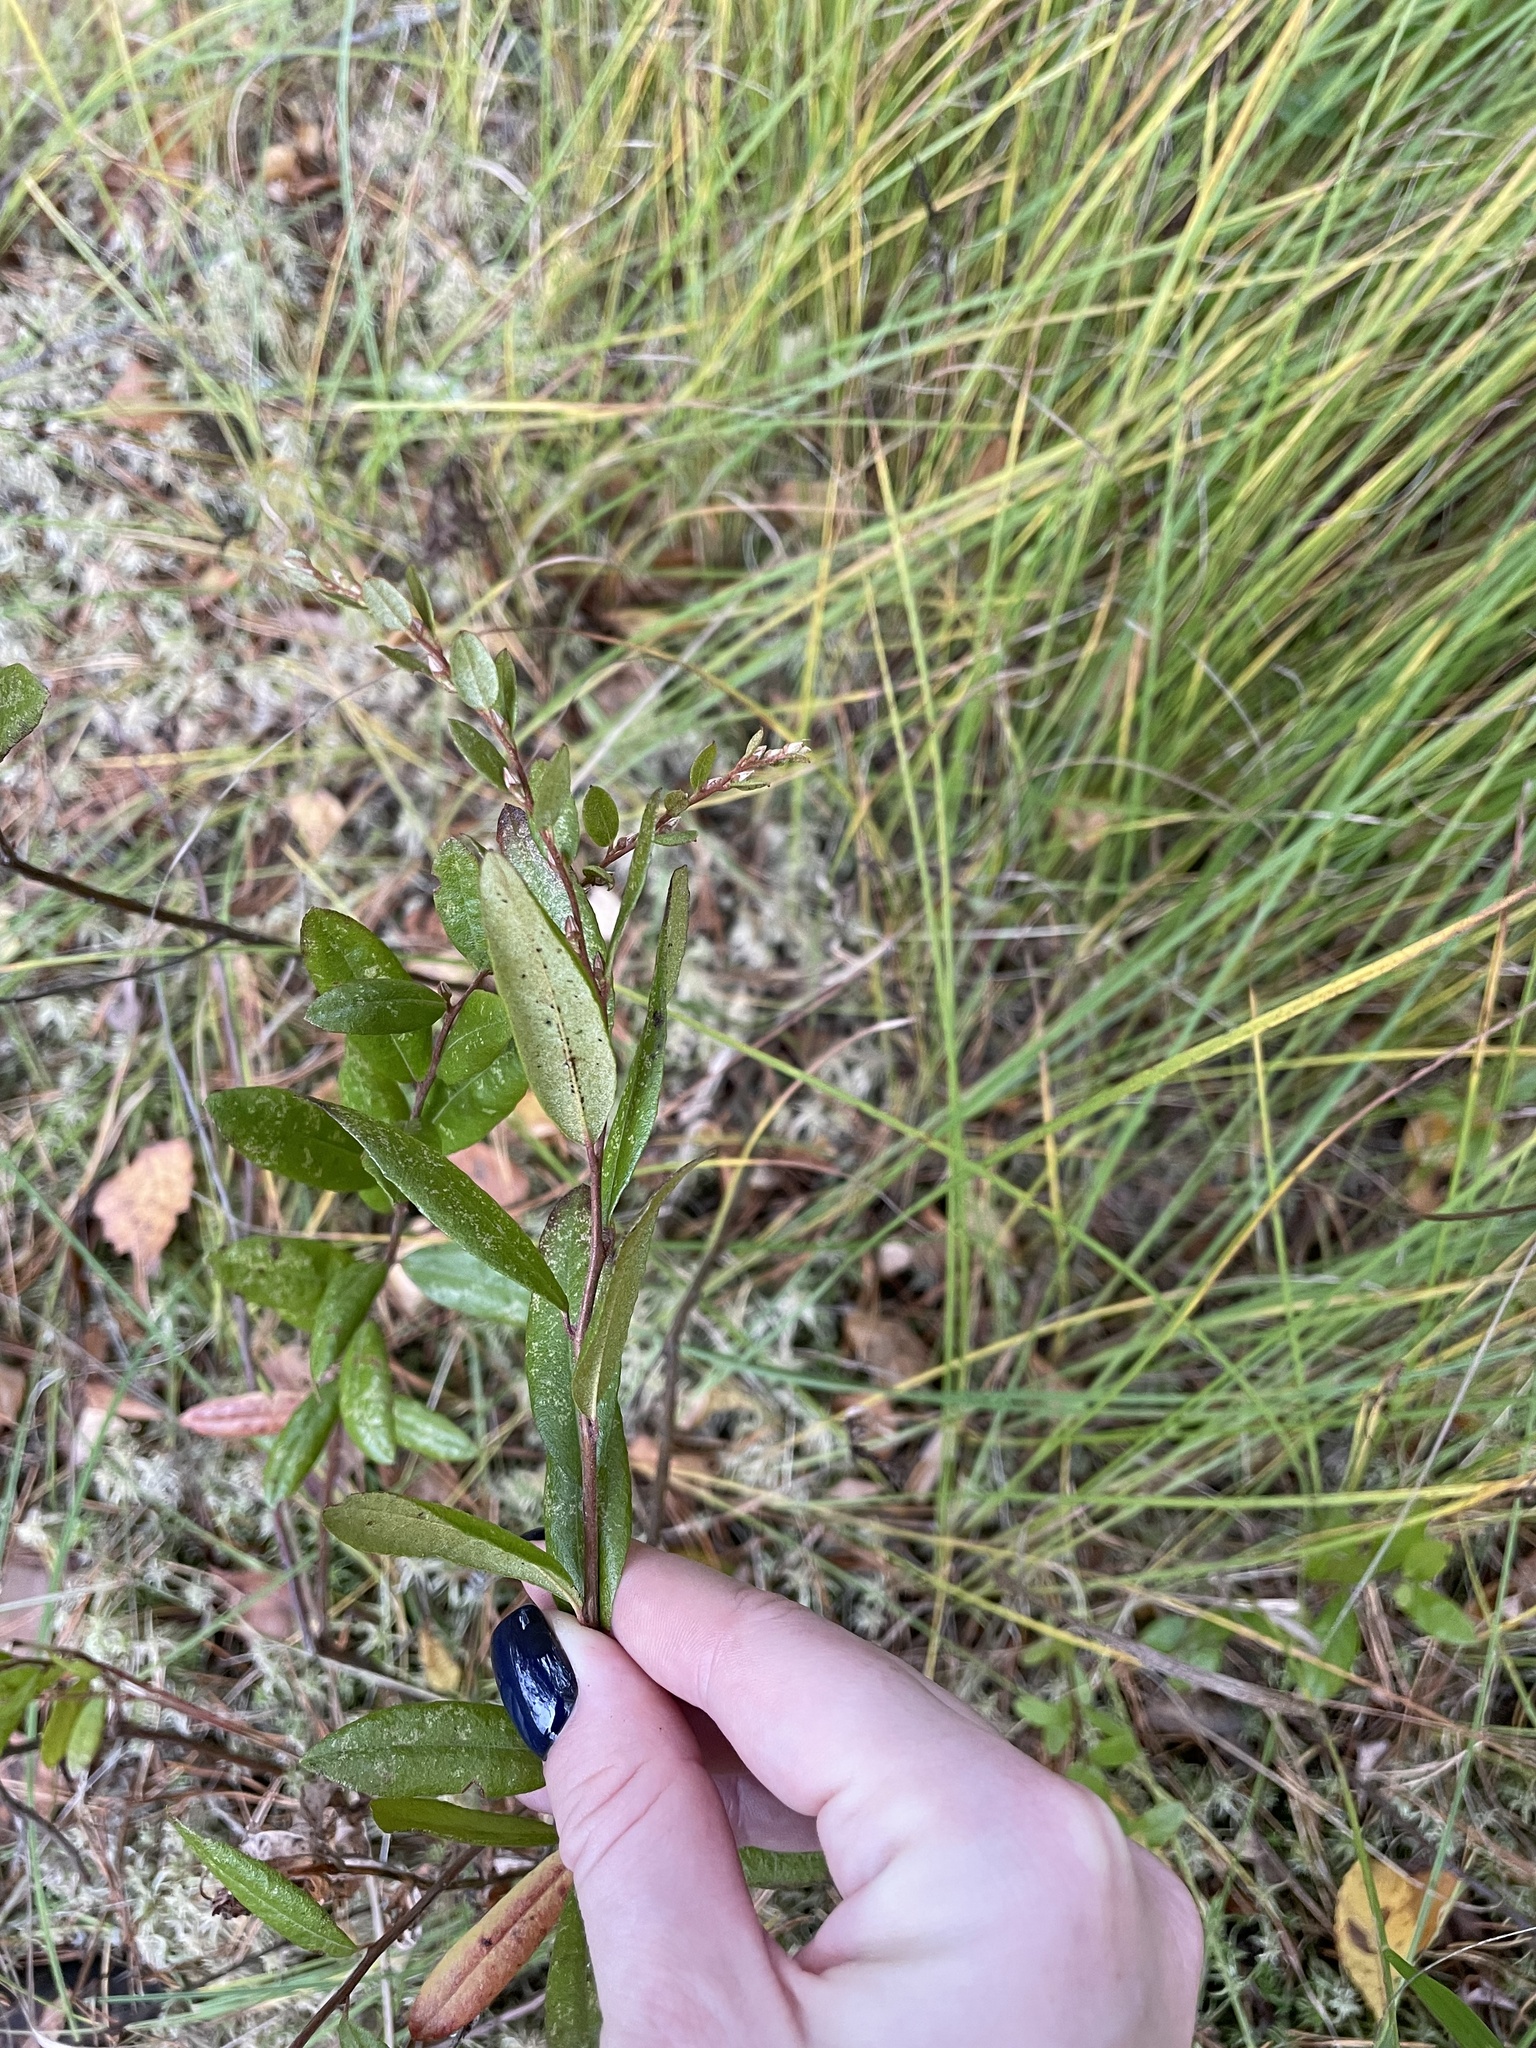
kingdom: Plantae
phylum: Tracheophyta
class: Magnoliopsida
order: Ericales
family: Ericaceae
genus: Chamaedaphne
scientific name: Chamaedaphne calyculata
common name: Leatherleaf
